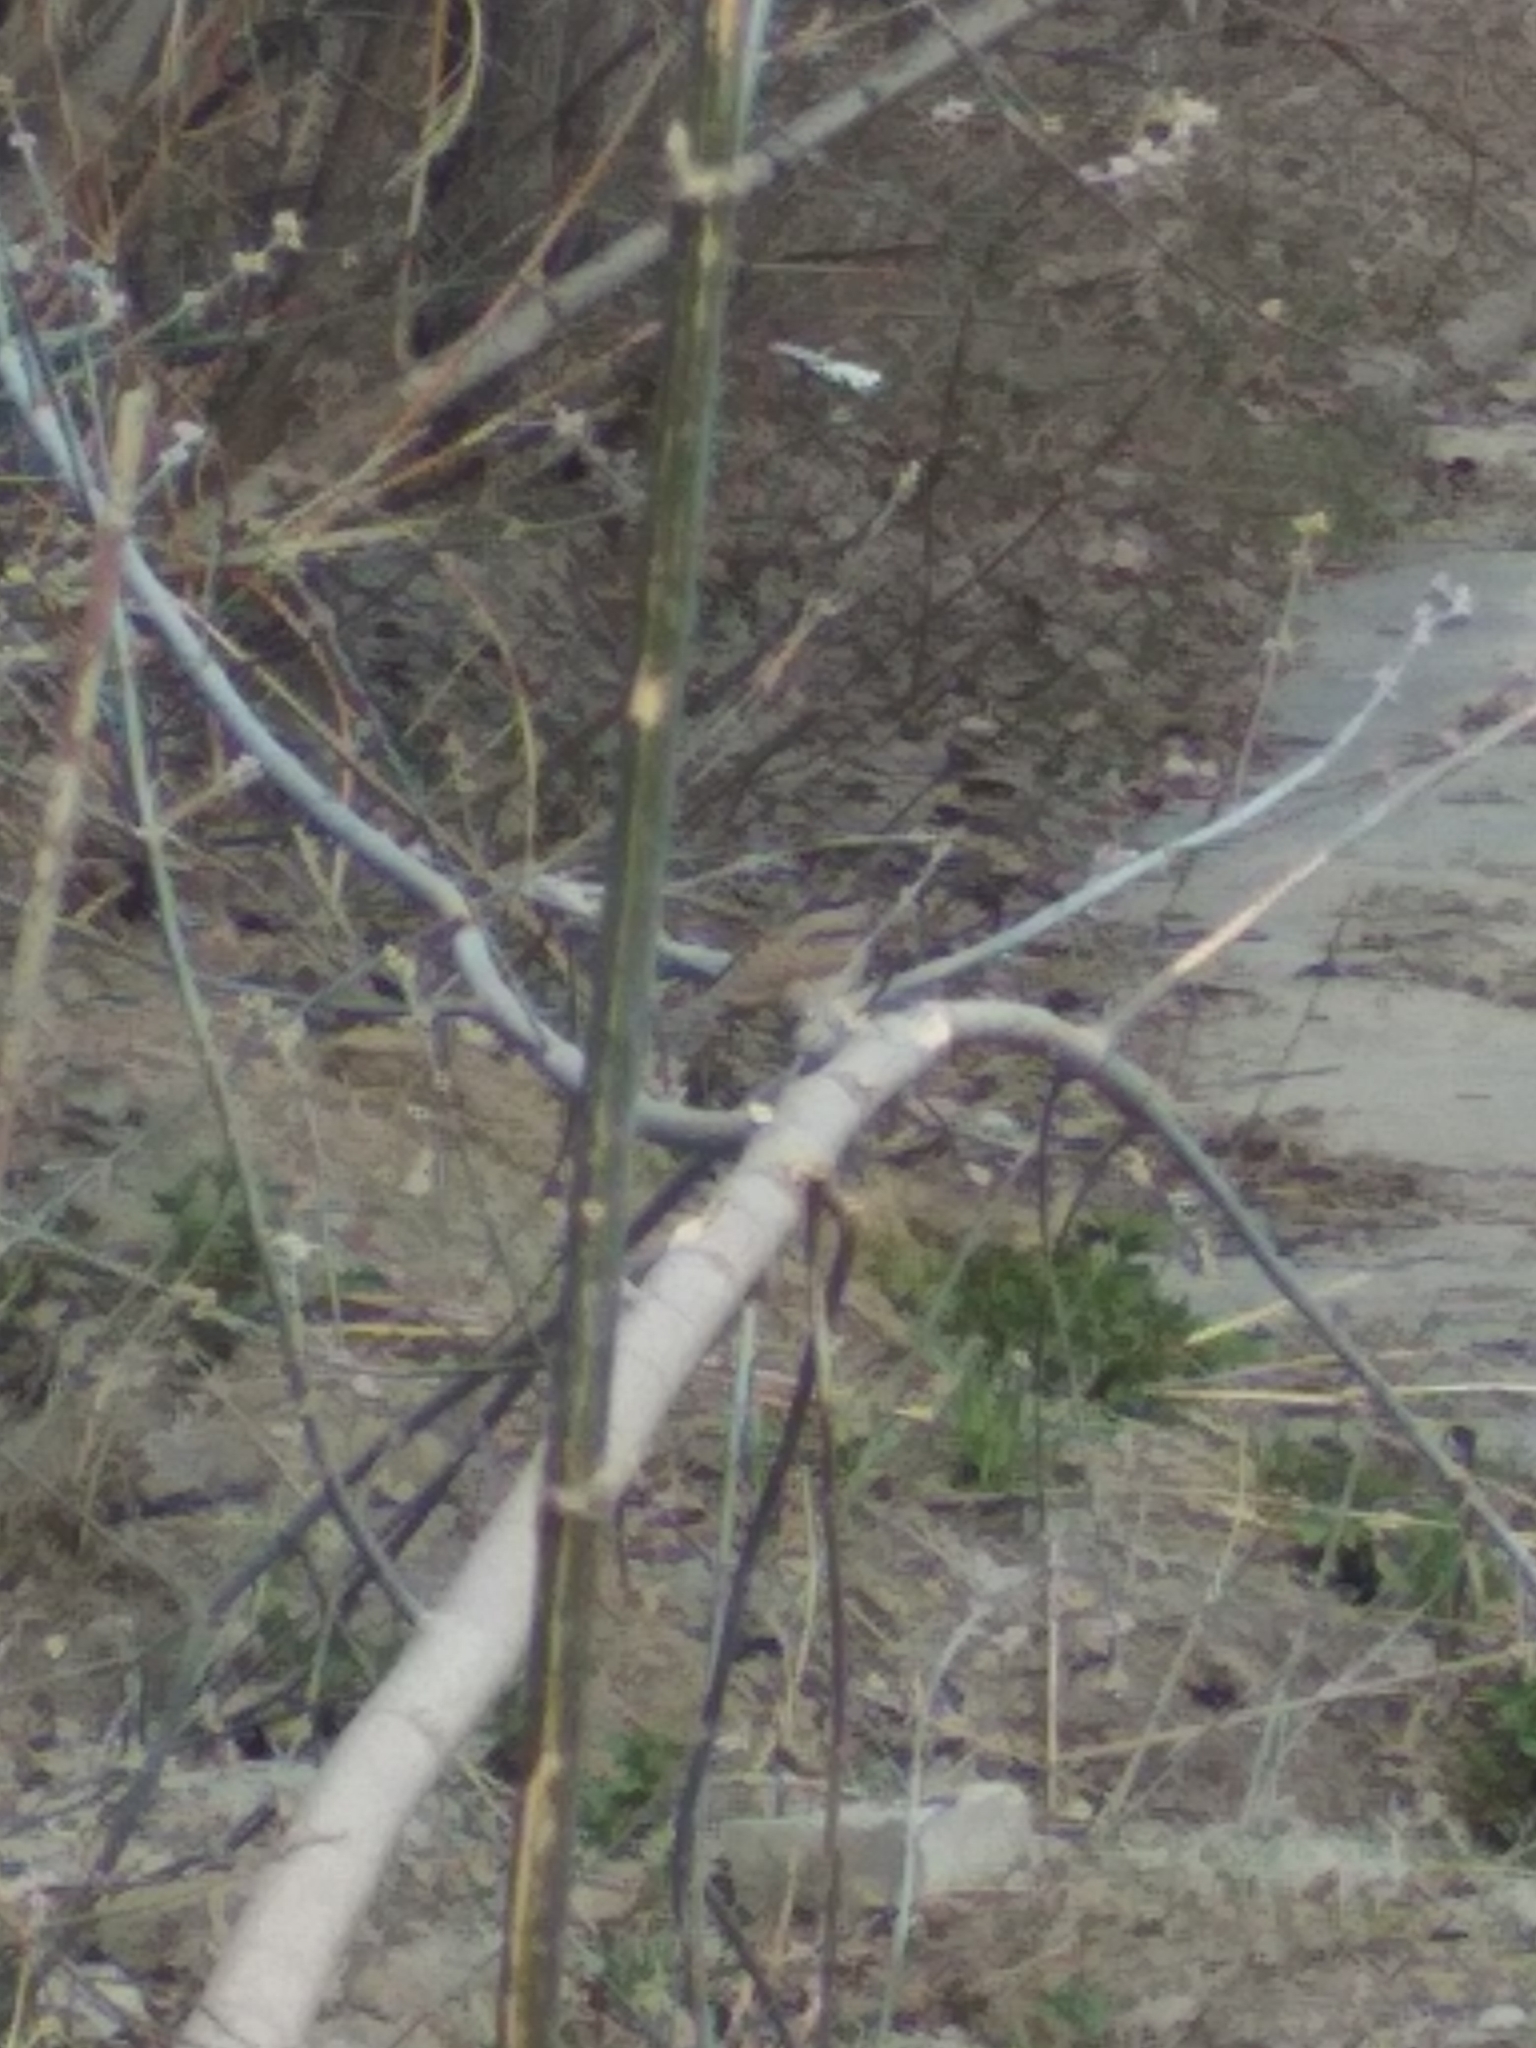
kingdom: Animalia
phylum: Chordata
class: Aves
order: Piciformes
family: Picidae
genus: Jynx
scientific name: Jynx torquilla
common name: Eurasian wryneck
